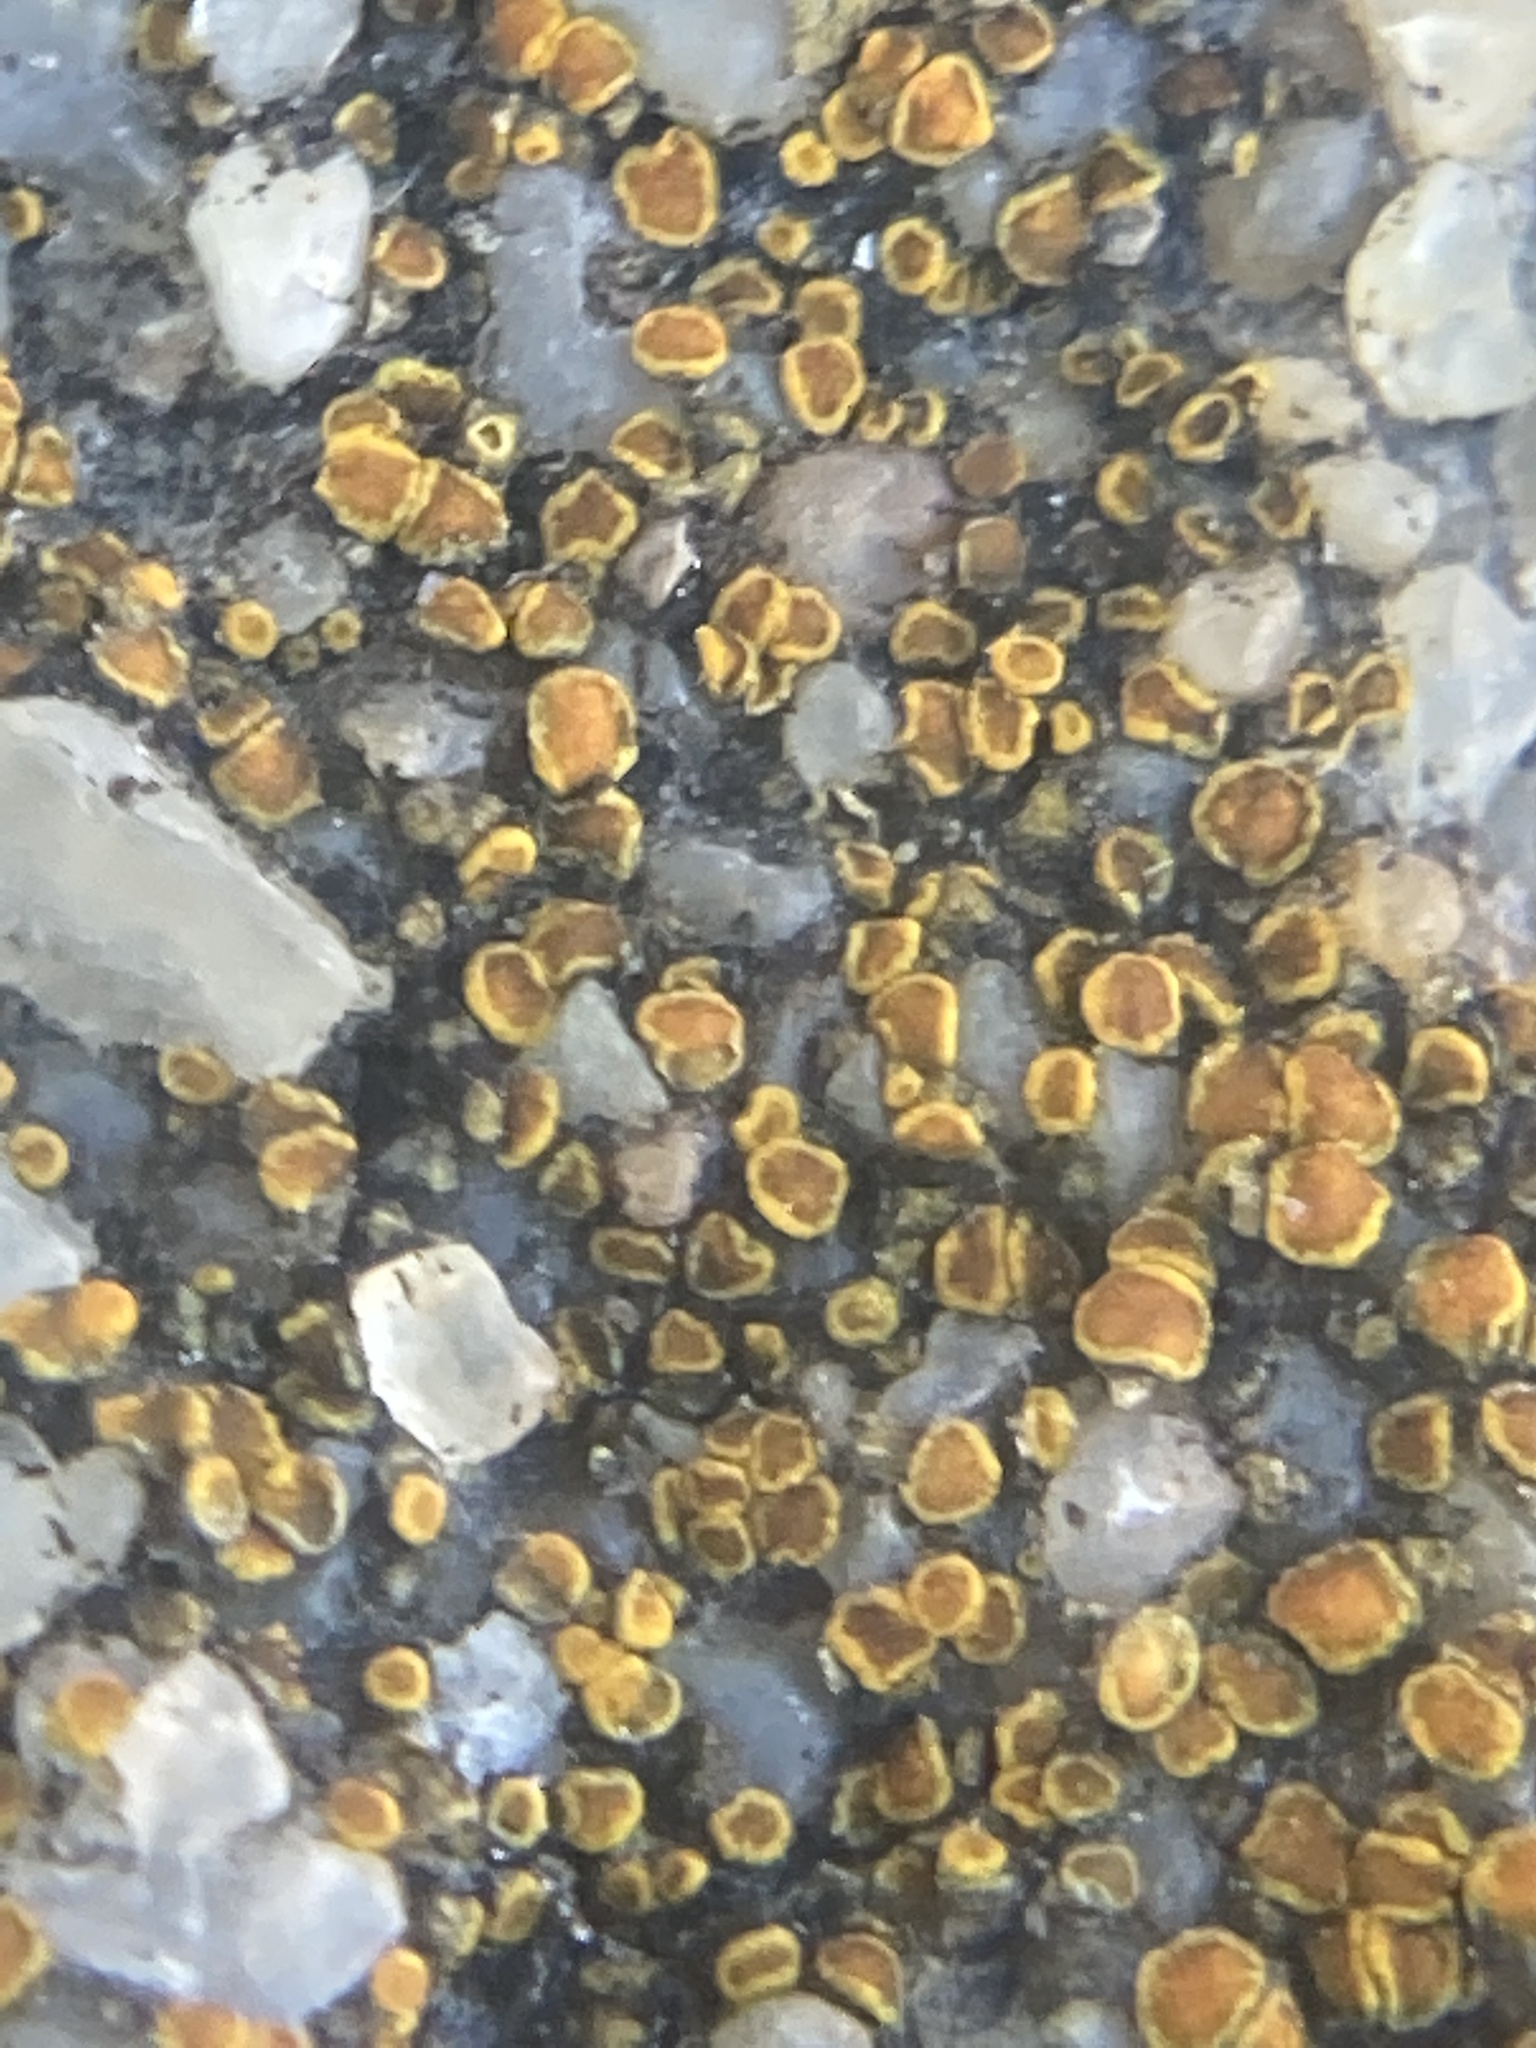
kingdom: Fungi
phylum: Ascomycota
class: Candelariomycetes
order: Candelariales
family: Candelariaceae
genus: Candelariella
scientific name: Candelariella aurella
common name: Hidden goldspeck lichen
